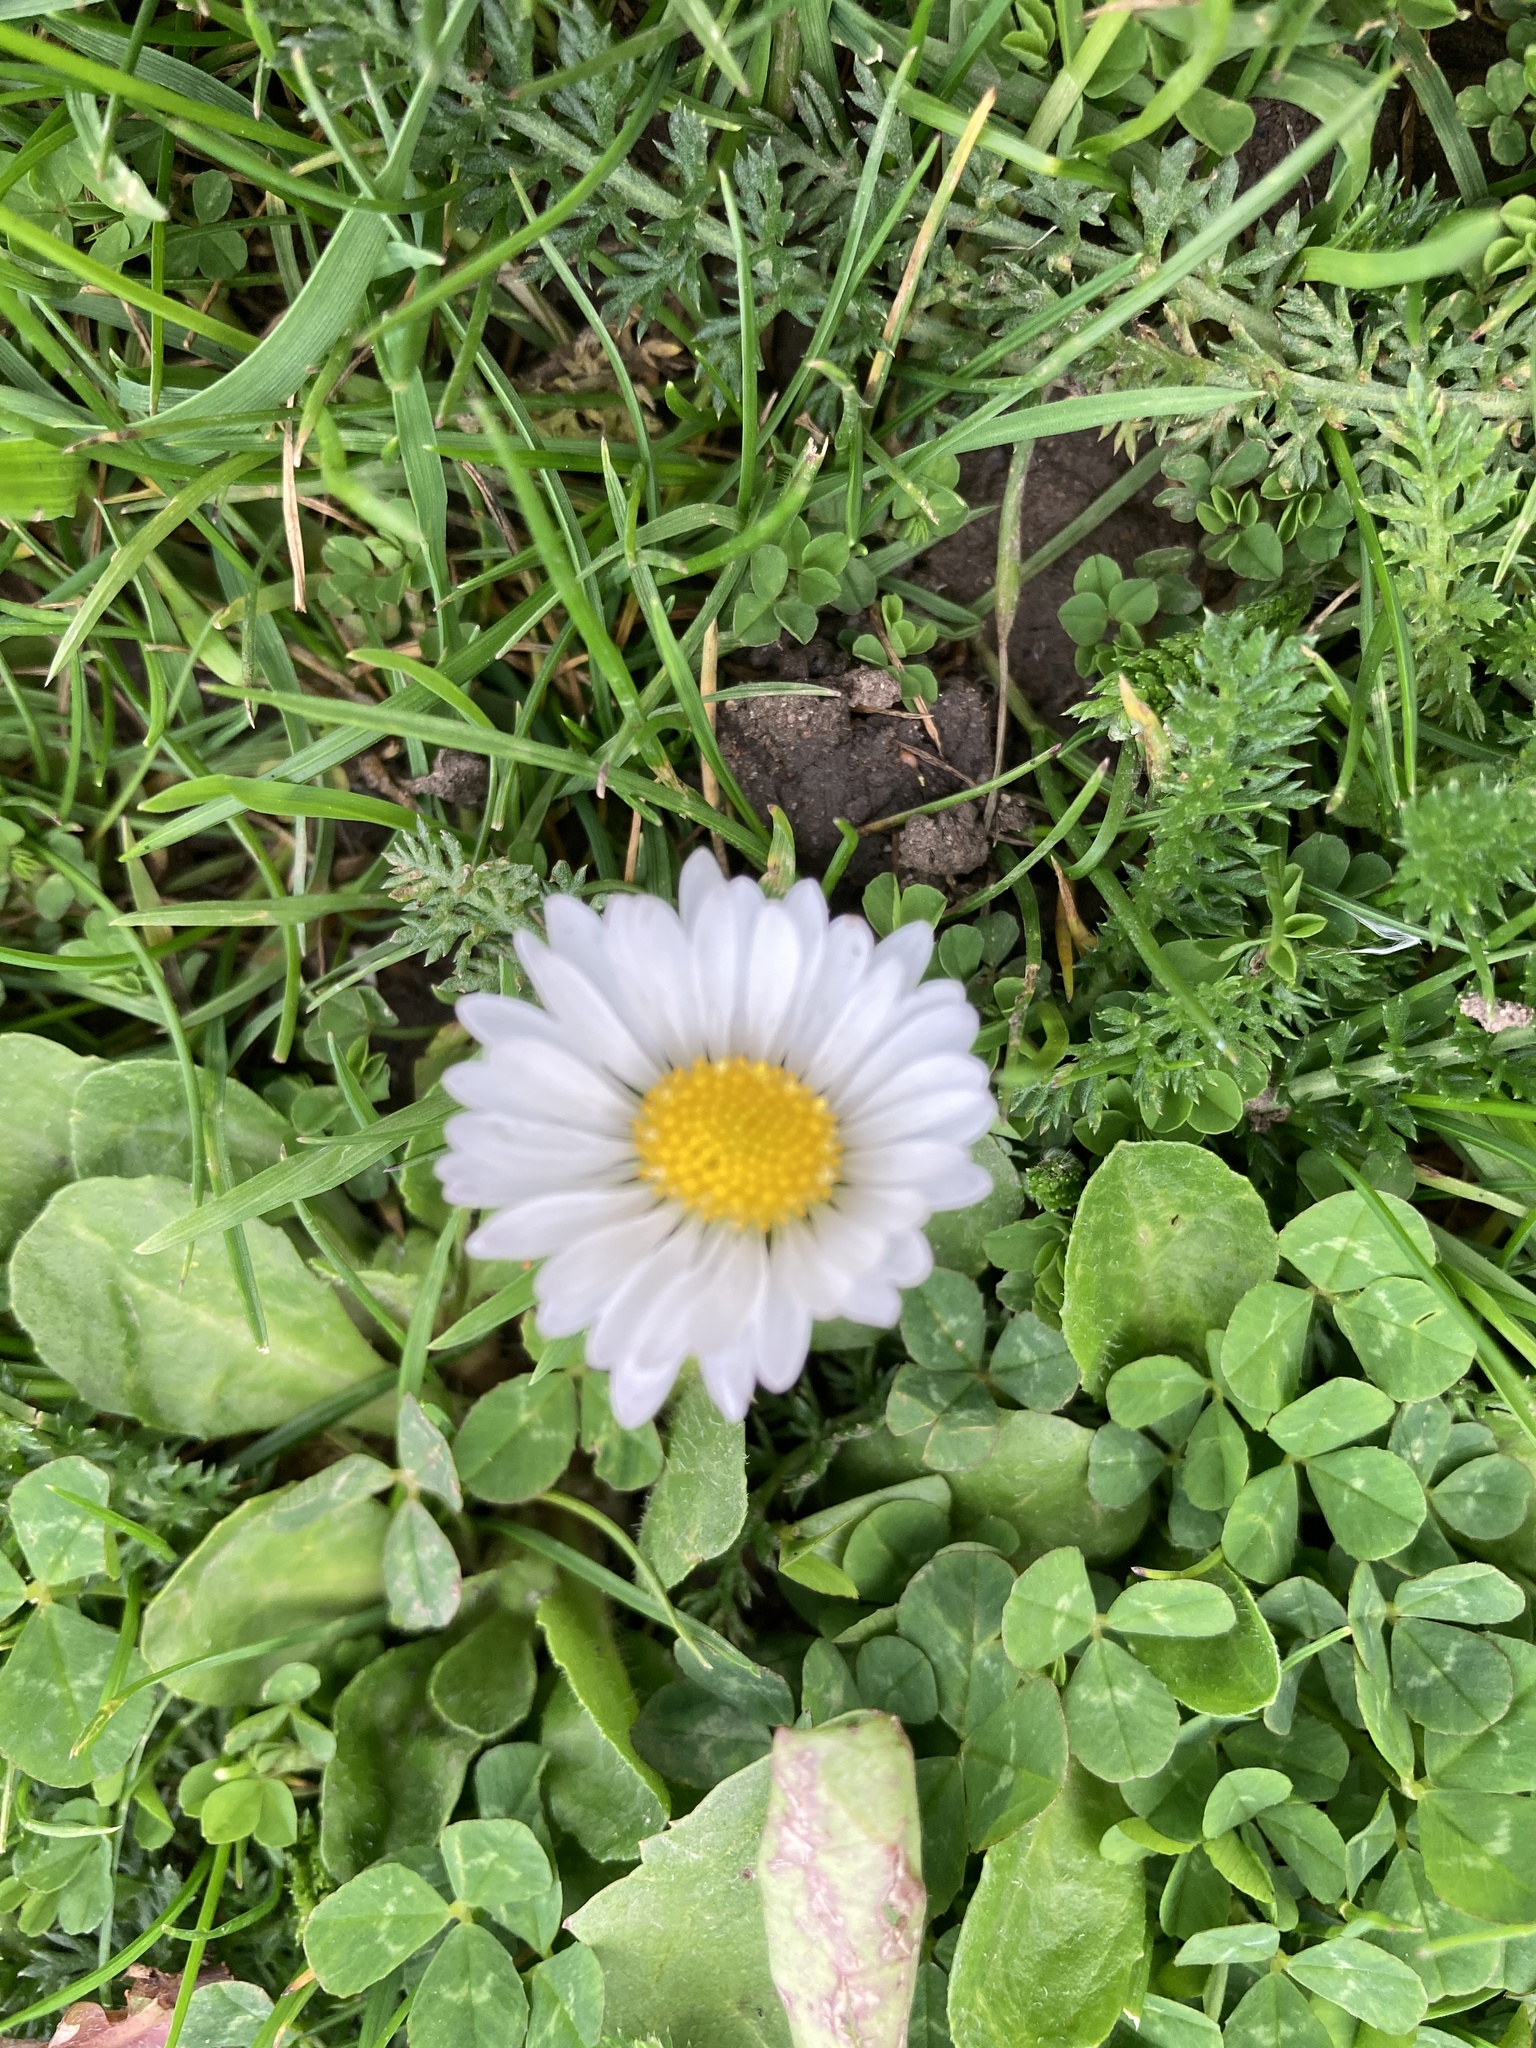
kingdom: Plantae
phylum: Tracheophyta
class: Magnoliopsida
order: Asterales
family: Asteraceae
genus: Bellis
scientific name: Bellis perennis
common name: Lawndaisy
